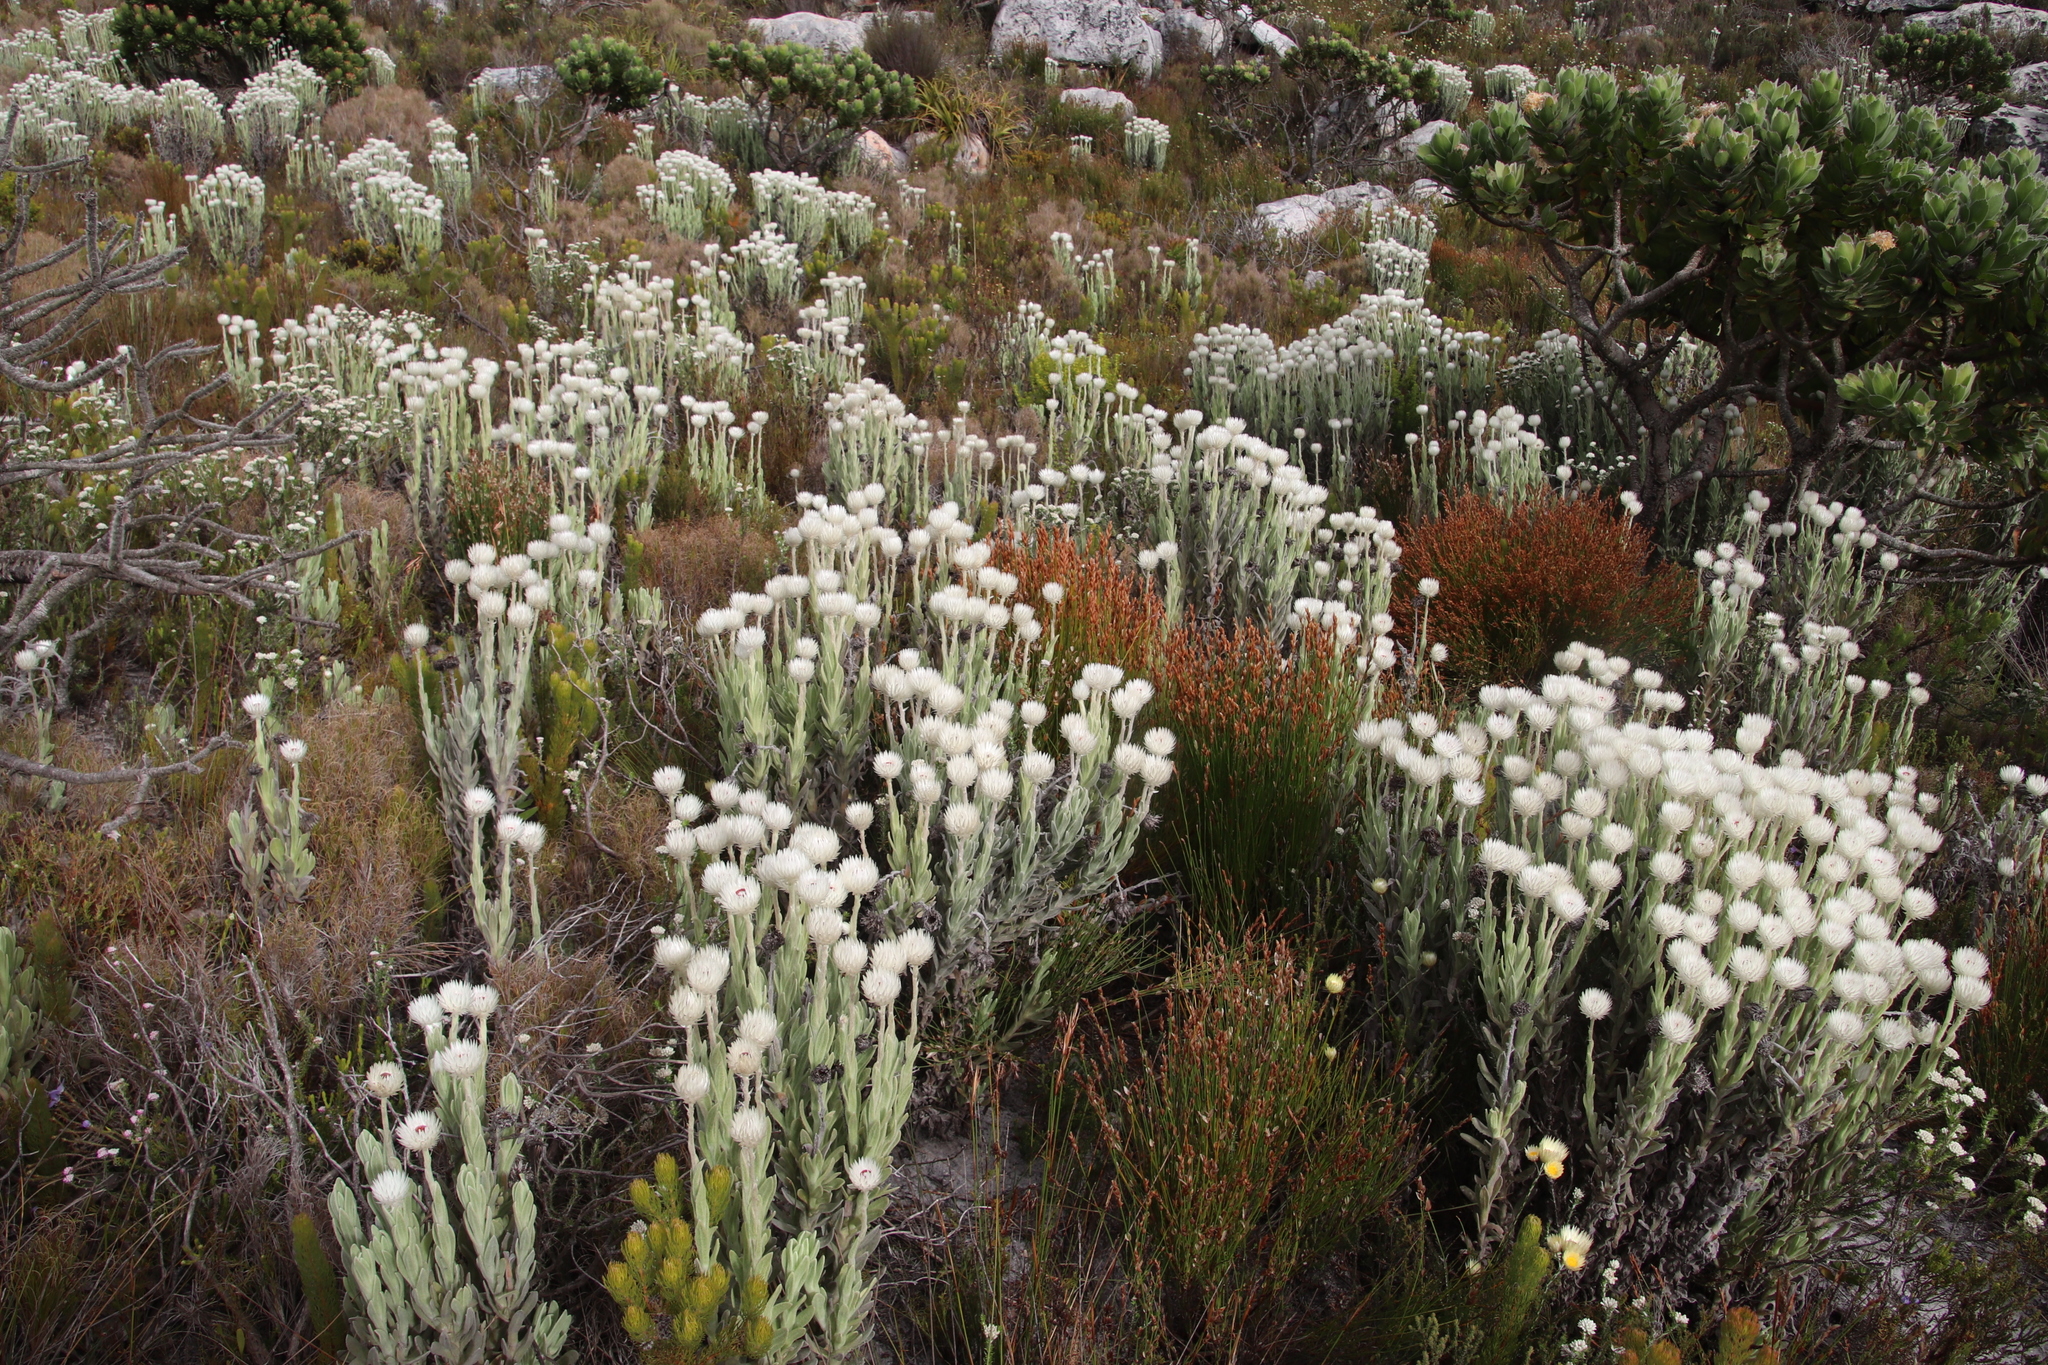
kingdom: Plantae
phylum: Tracheophyta
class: Magnoliopsida
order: Asterales
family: Asteraceae
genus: Syncarpha
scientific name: Syncarpha vestita
